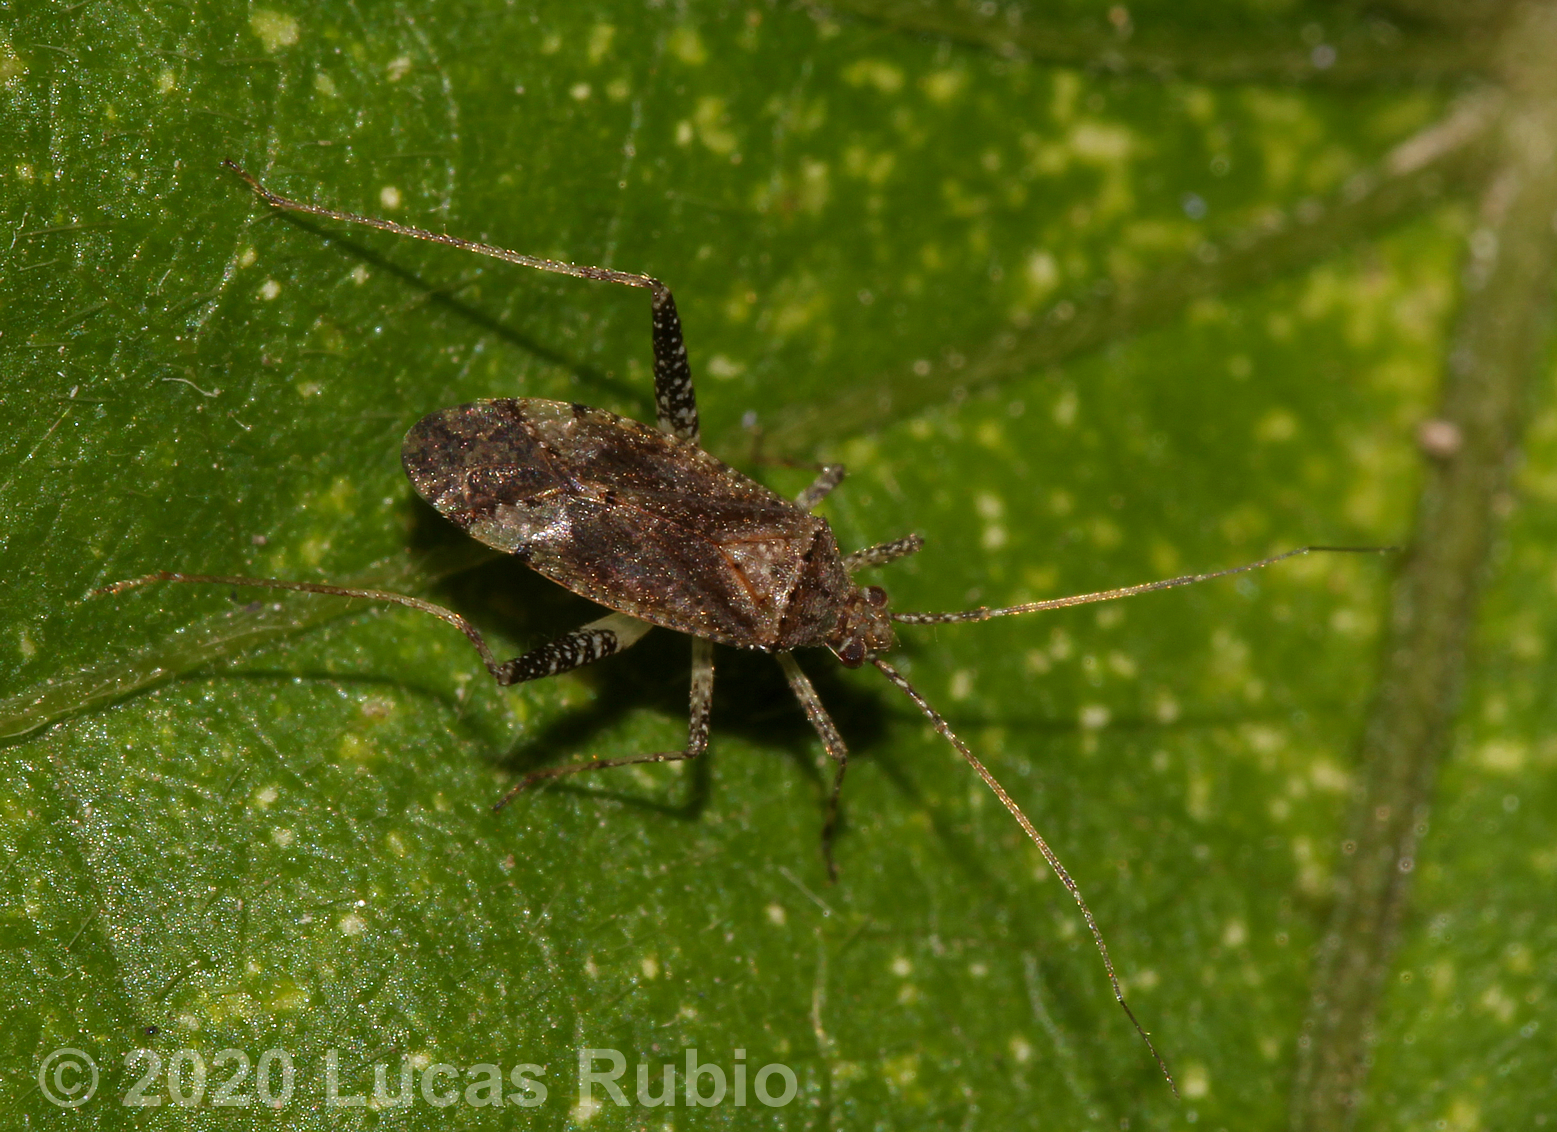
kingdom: Animalia
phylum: Arthropoda
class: Insecta
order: Hemiptera
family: Miridae
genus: Phytocoris
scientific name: Phytocoris bonaerensis
